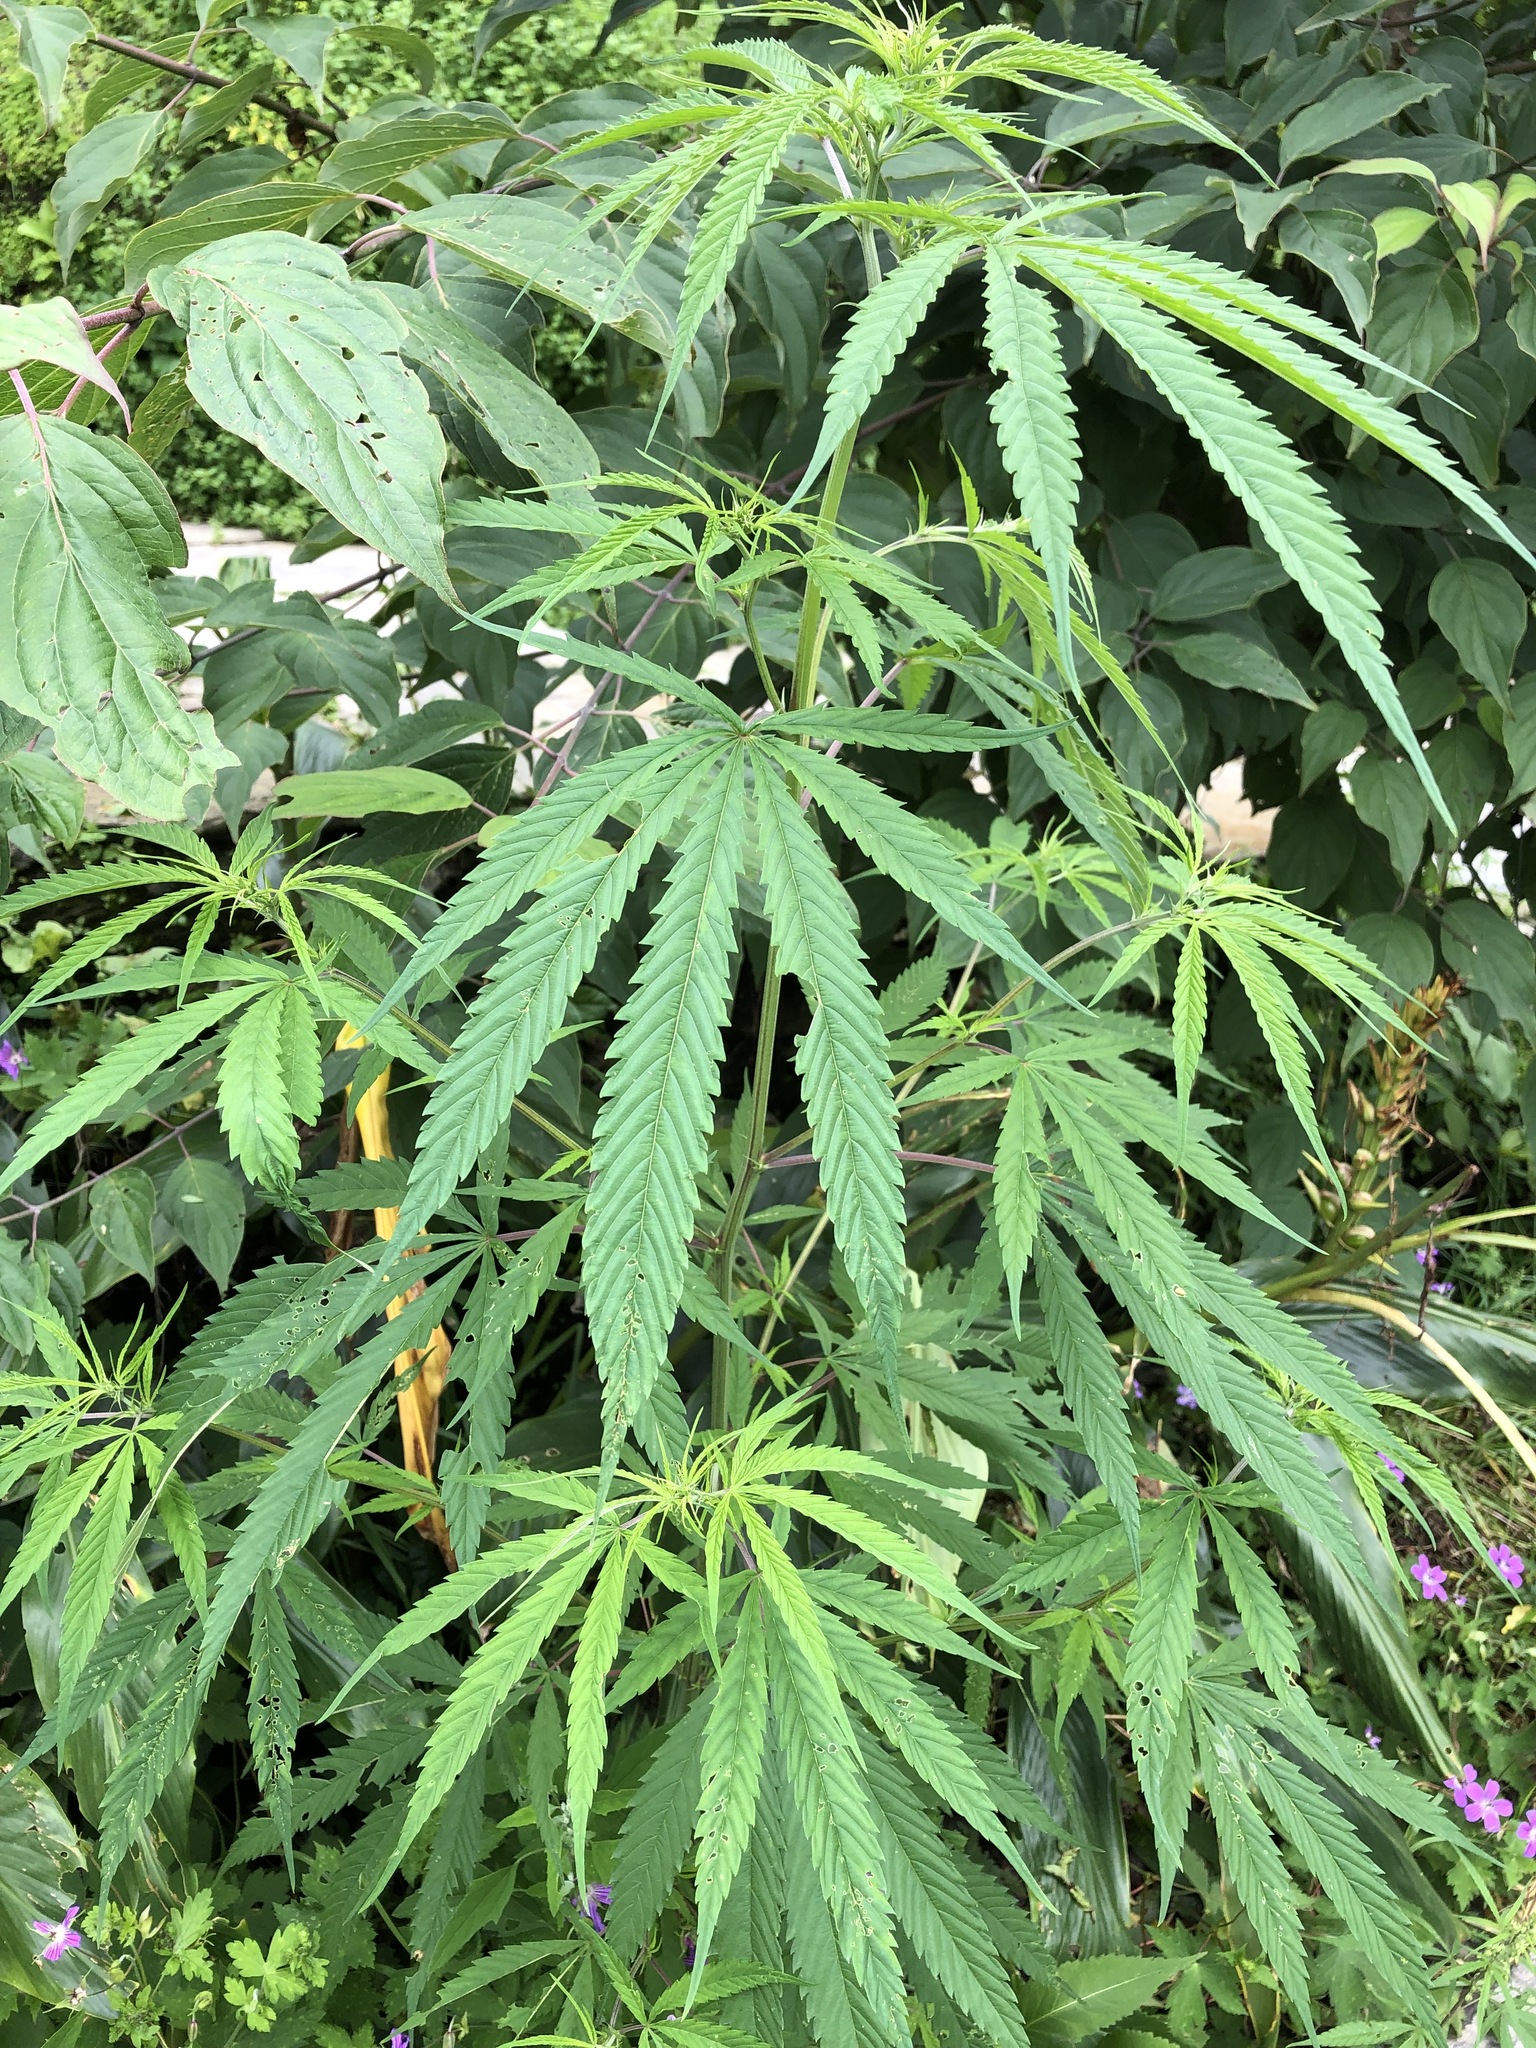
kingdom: Plantae
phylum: Tracheophyta
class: Magnoliopsida
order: Rosales
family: Cannabaceae
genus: Cannabis
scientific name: Cannabis sativa
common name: Hemp
